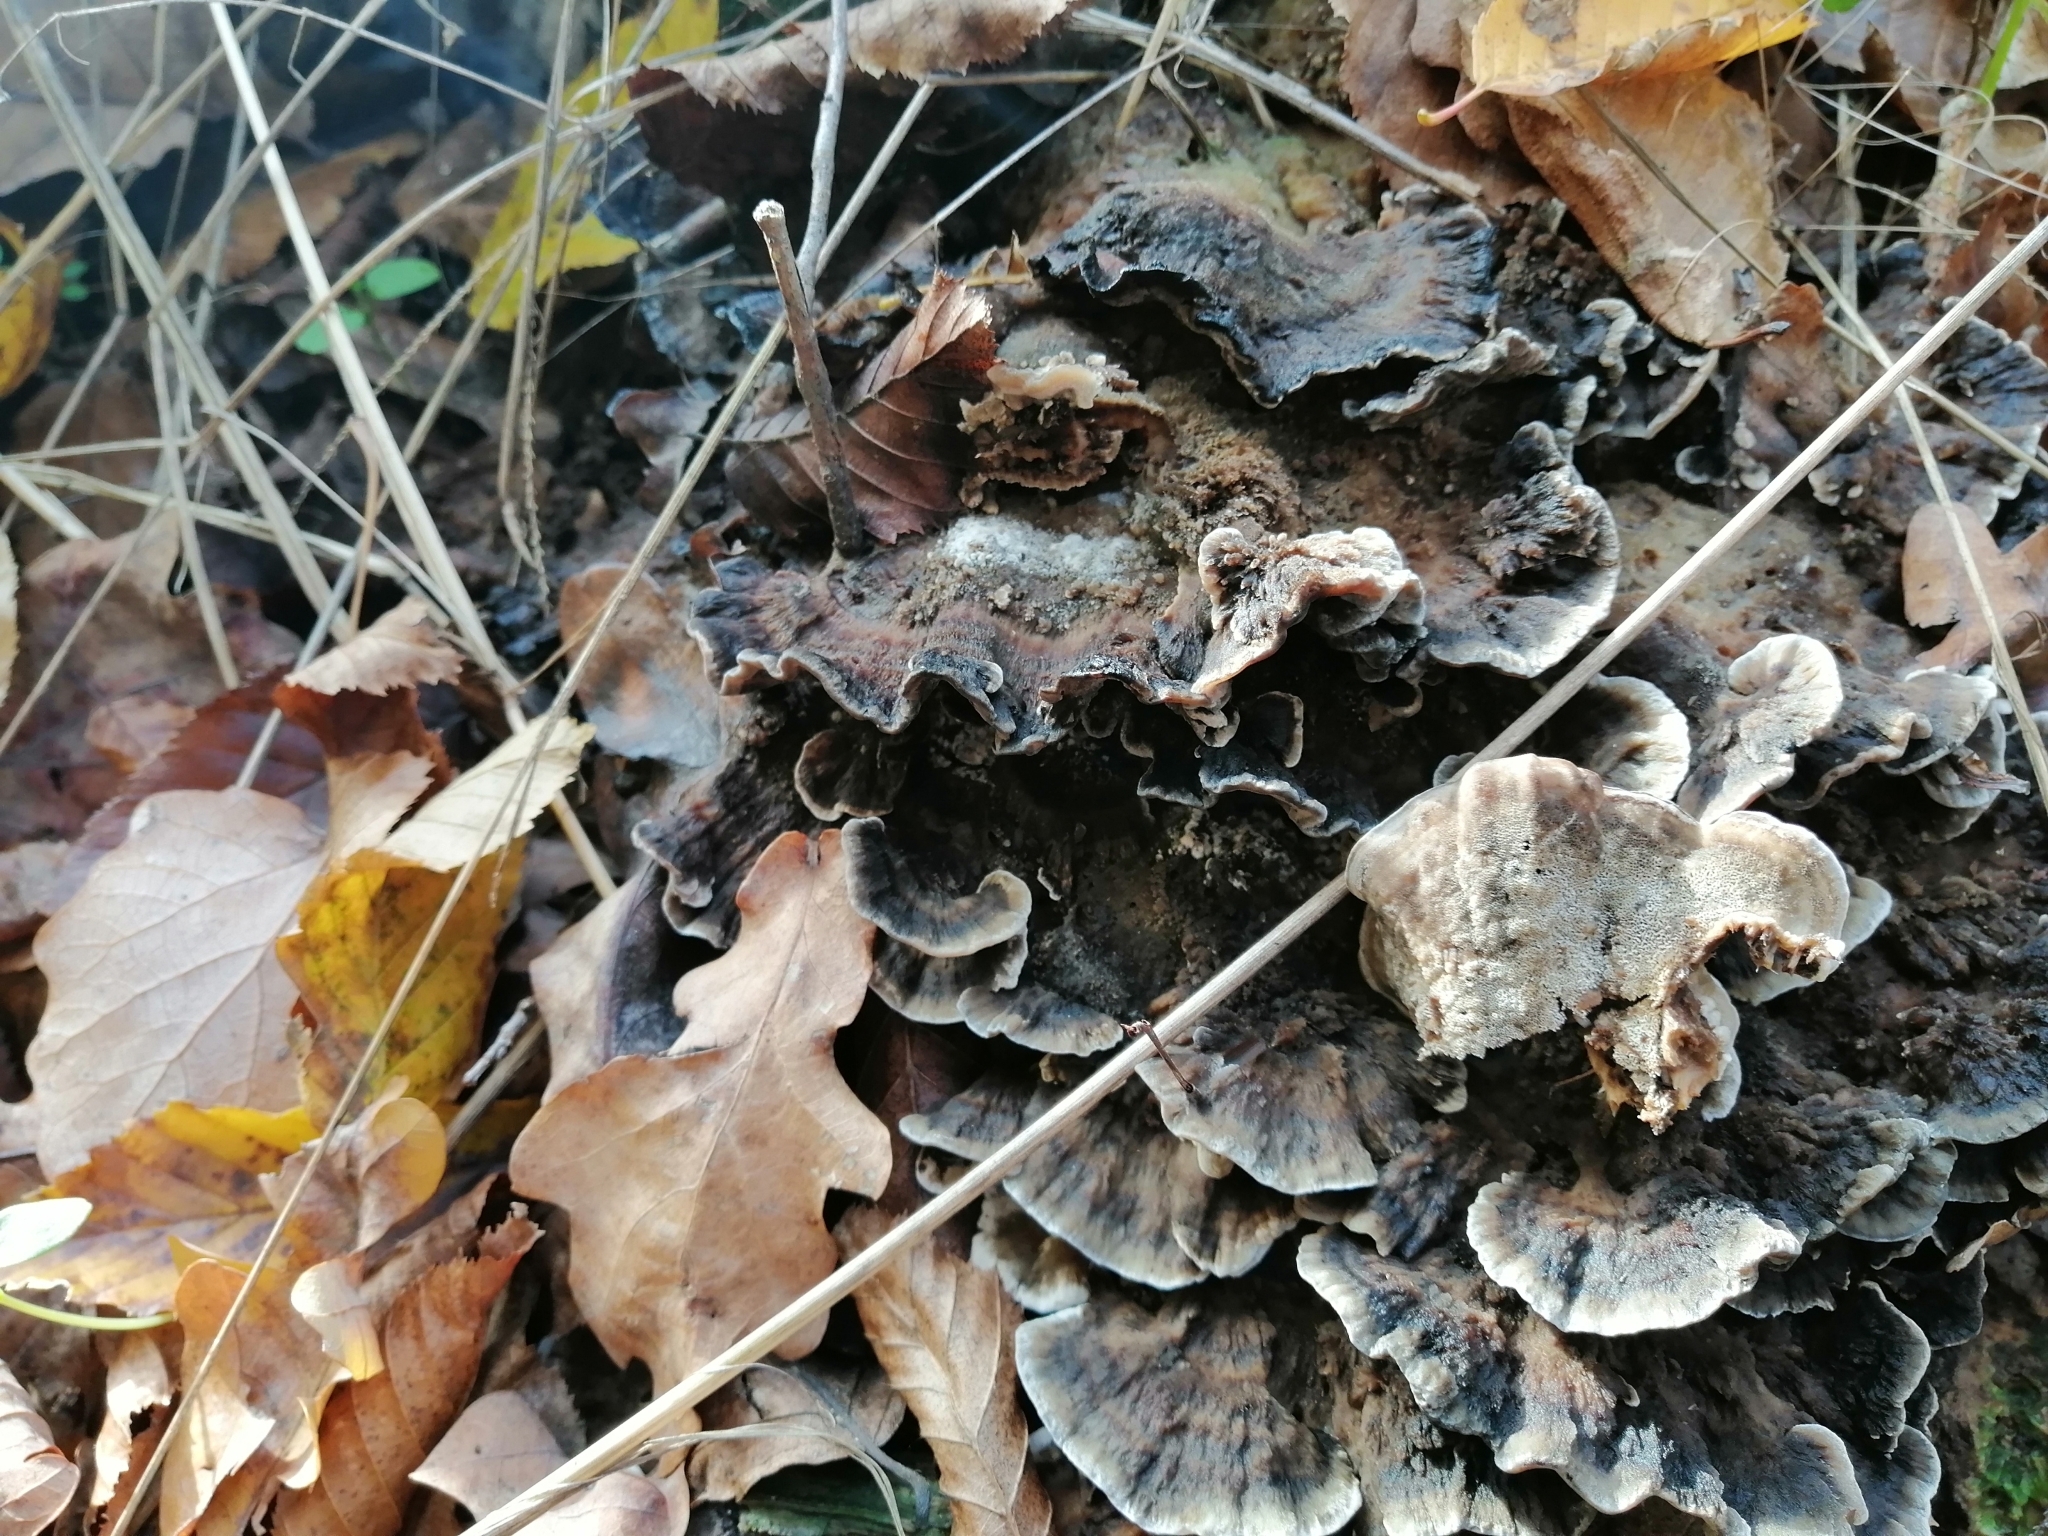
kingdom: Fungi
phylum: Basidiomycota
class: Agaricomycetes
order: Polyporales
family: Phanerochaetaceae
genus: Bjerkandera
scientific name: Bjerkandera adusta
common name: Smoky bracket
